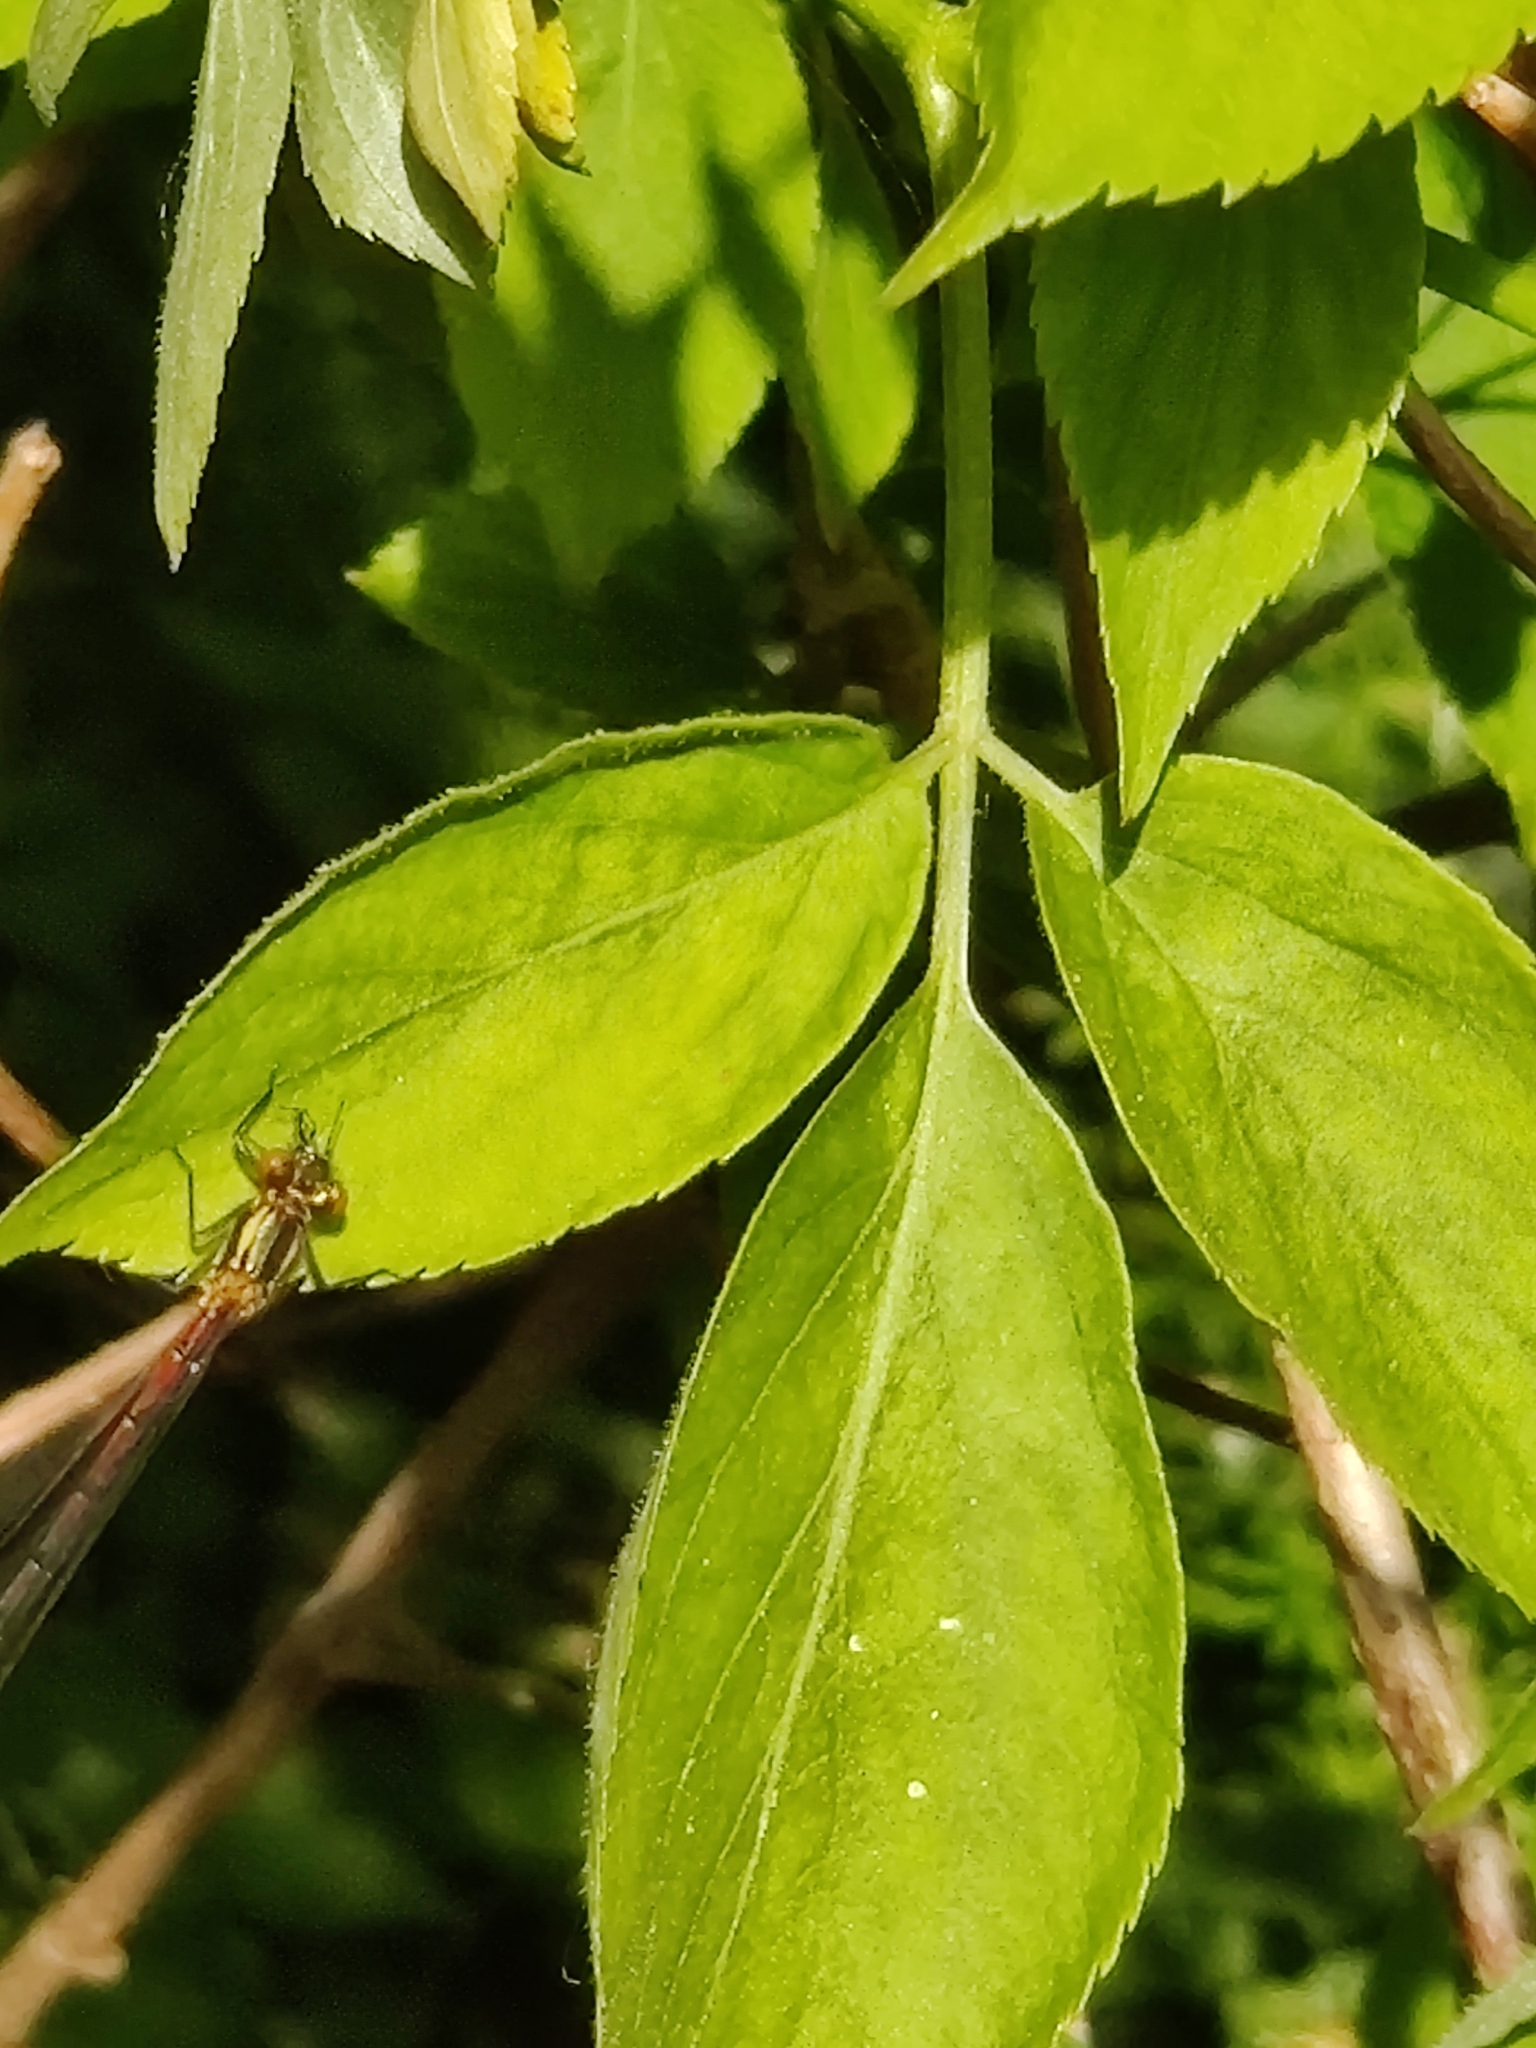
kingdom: Animalia
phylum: Arthropoda
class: Insecta
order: Odonata
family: Coenagrionidae
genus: Pyrrhosoma
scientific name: Pyrrhosoma nymphula
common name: Large red damsel
